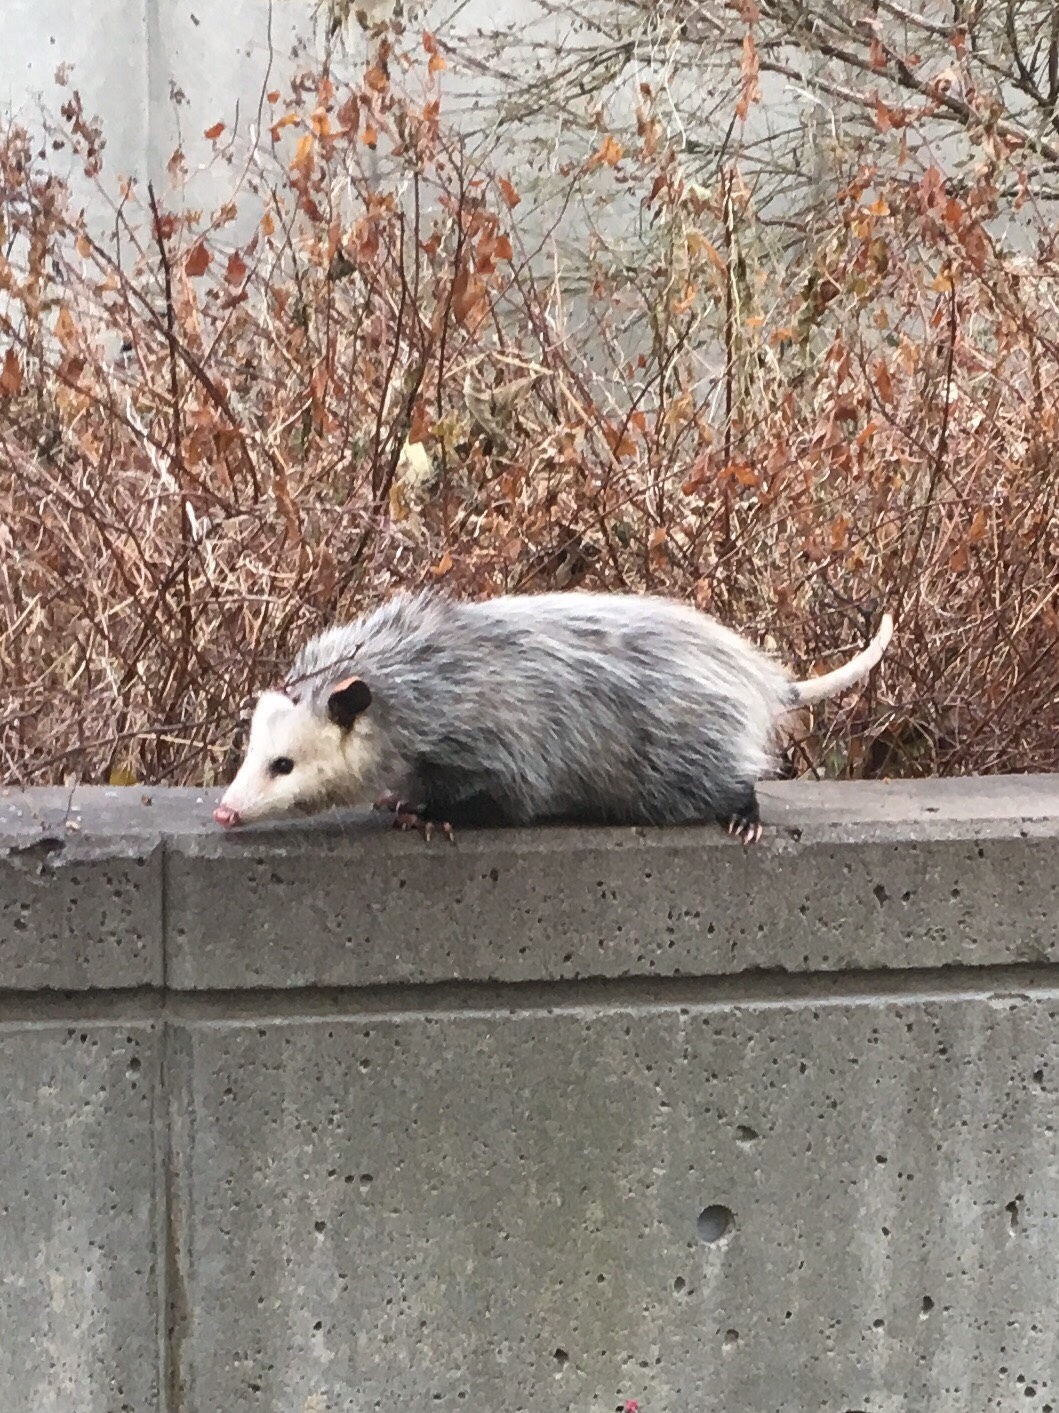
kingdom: Animalia
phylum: Chordata
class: Mammalia
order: Didelphimorphia
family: Didelphidae
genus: Didelphis
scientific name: Didelphis virginiana
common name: Virginia opossum
